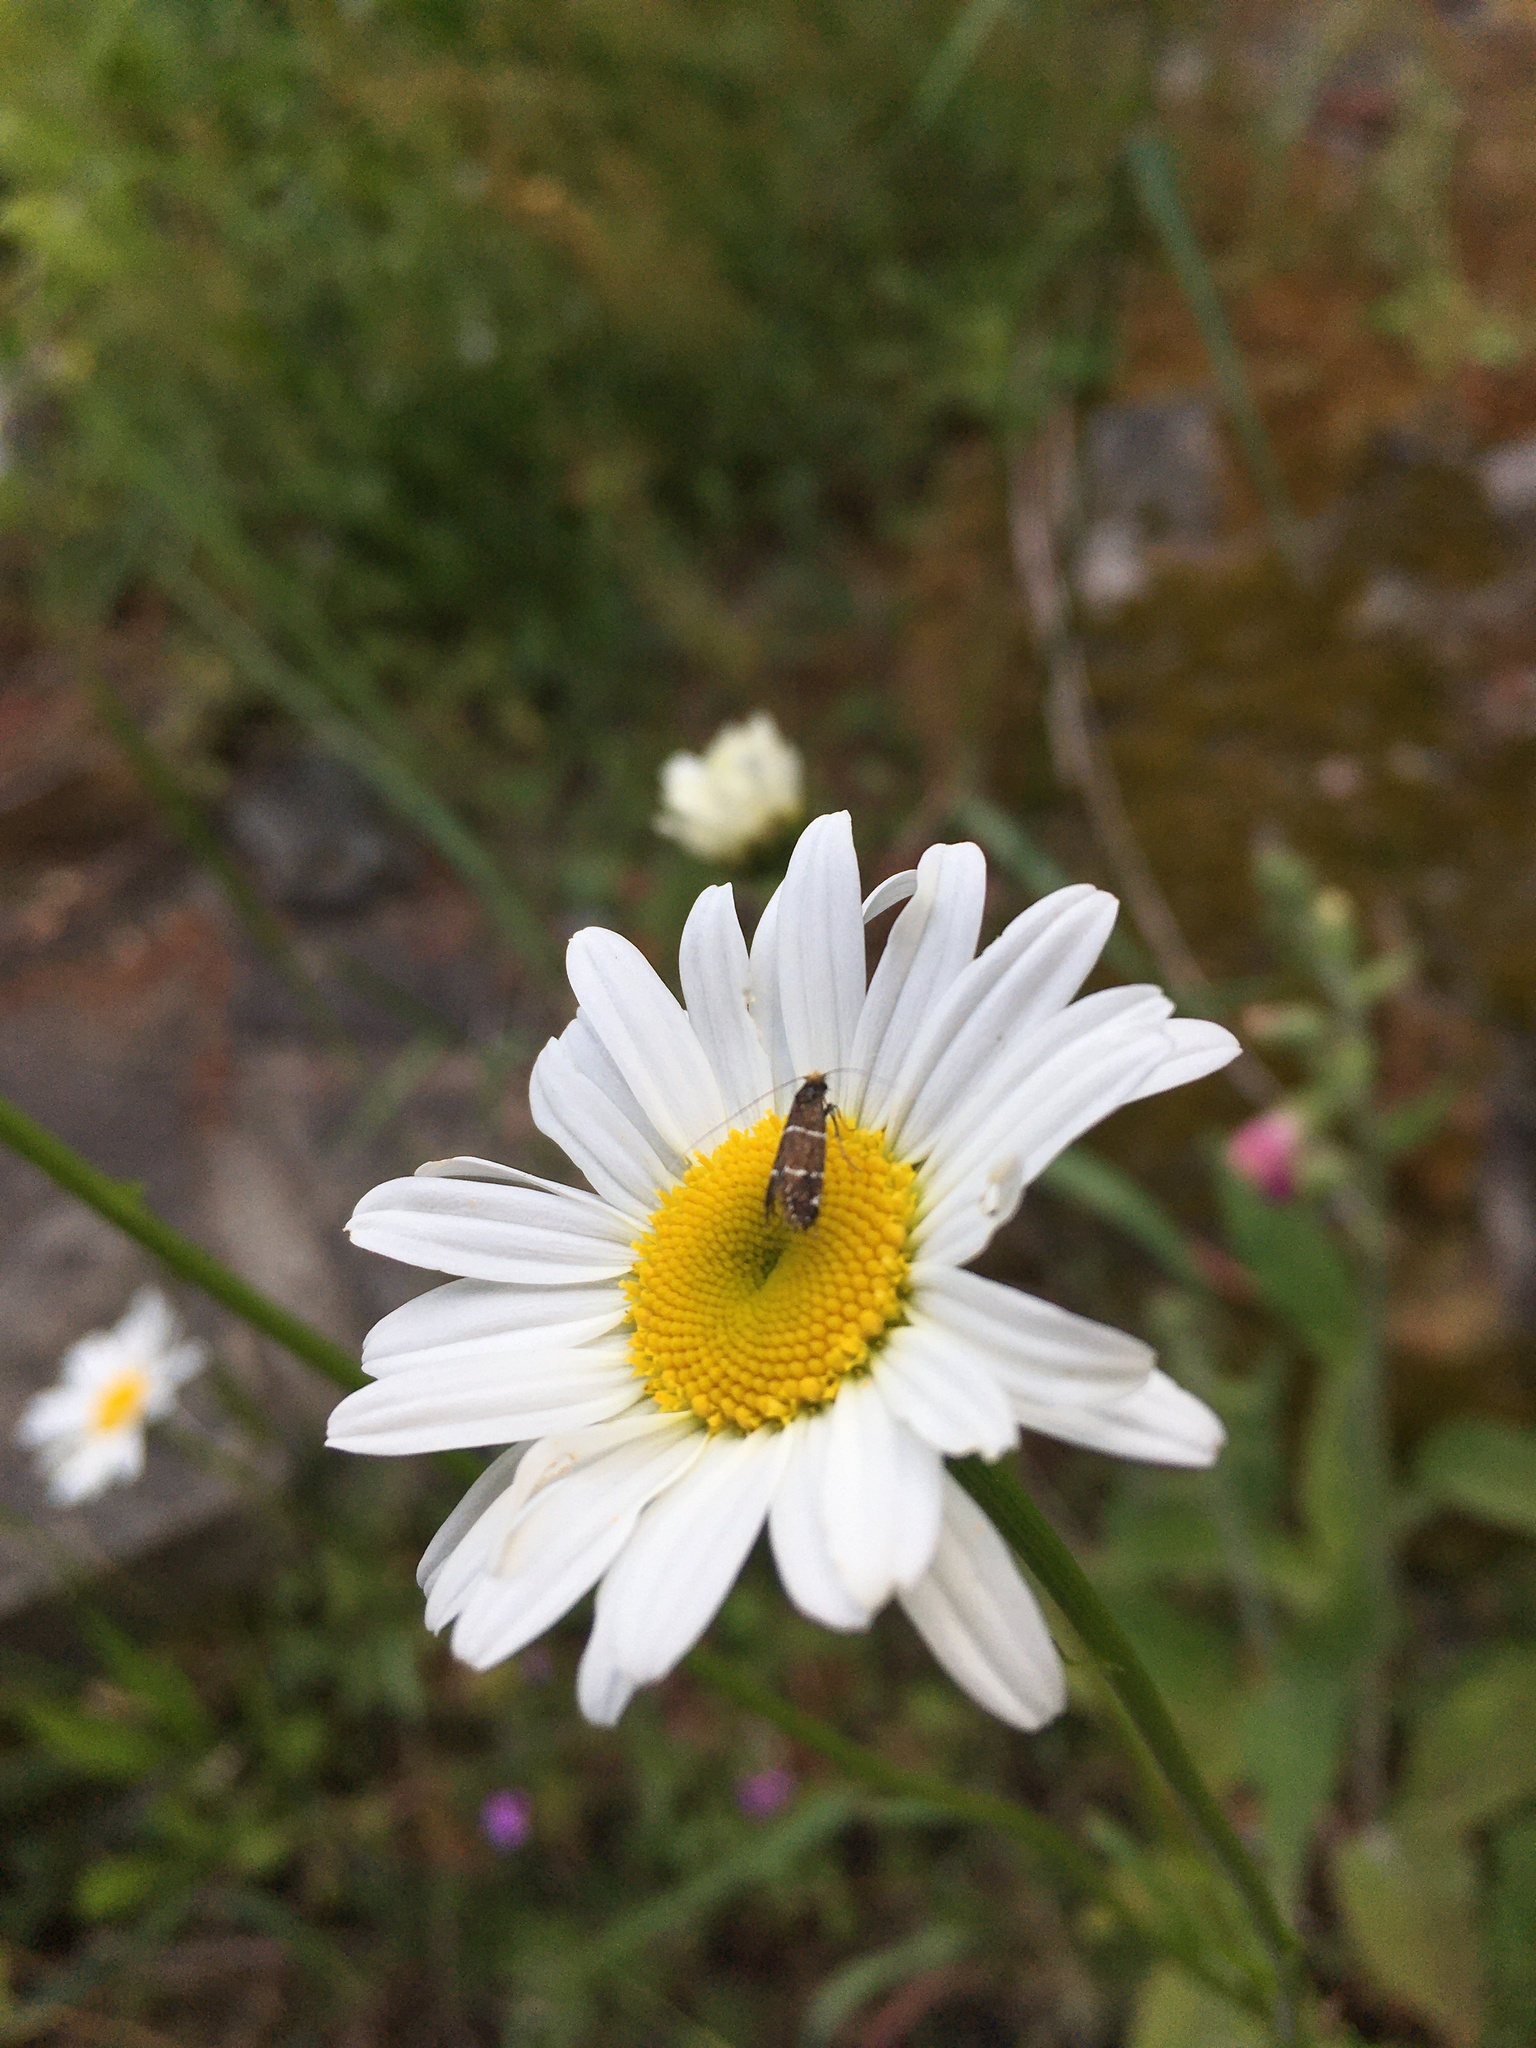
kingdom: Animalia
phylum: Arthropoda
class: Insecta
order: Lepidoptera
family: Adelidae
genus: Adela
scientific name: Adela septentrionella
